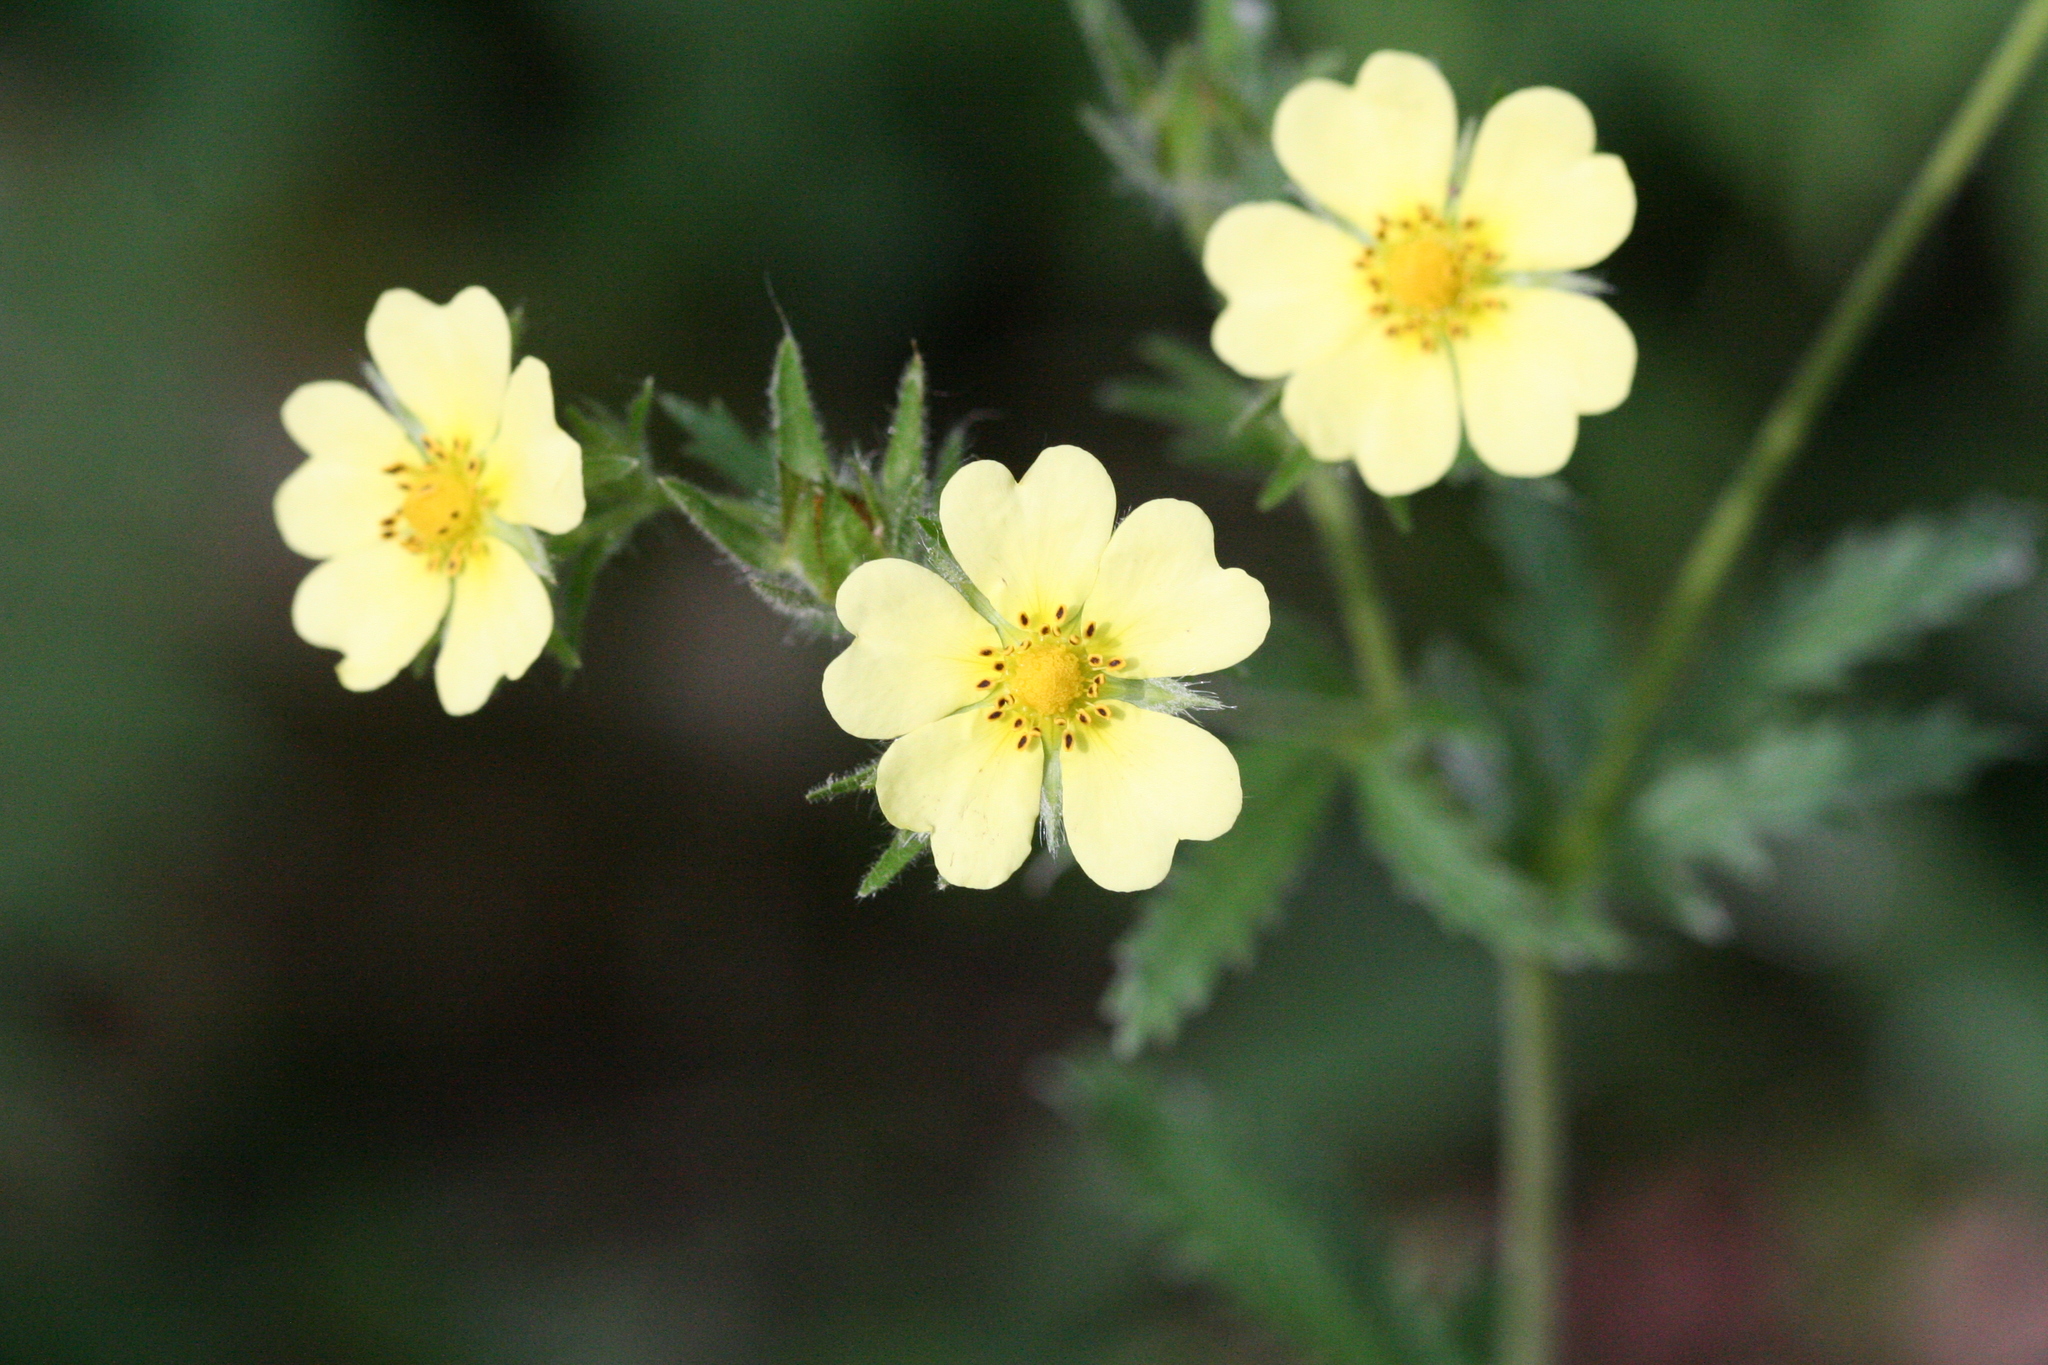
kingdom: Plantae
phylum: Tracheophyta
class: Magnoliopsida
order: Rosales
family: Rosaceae
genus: Potentilla
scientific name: Potentilla recta
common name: Sulphur cinquefoil
